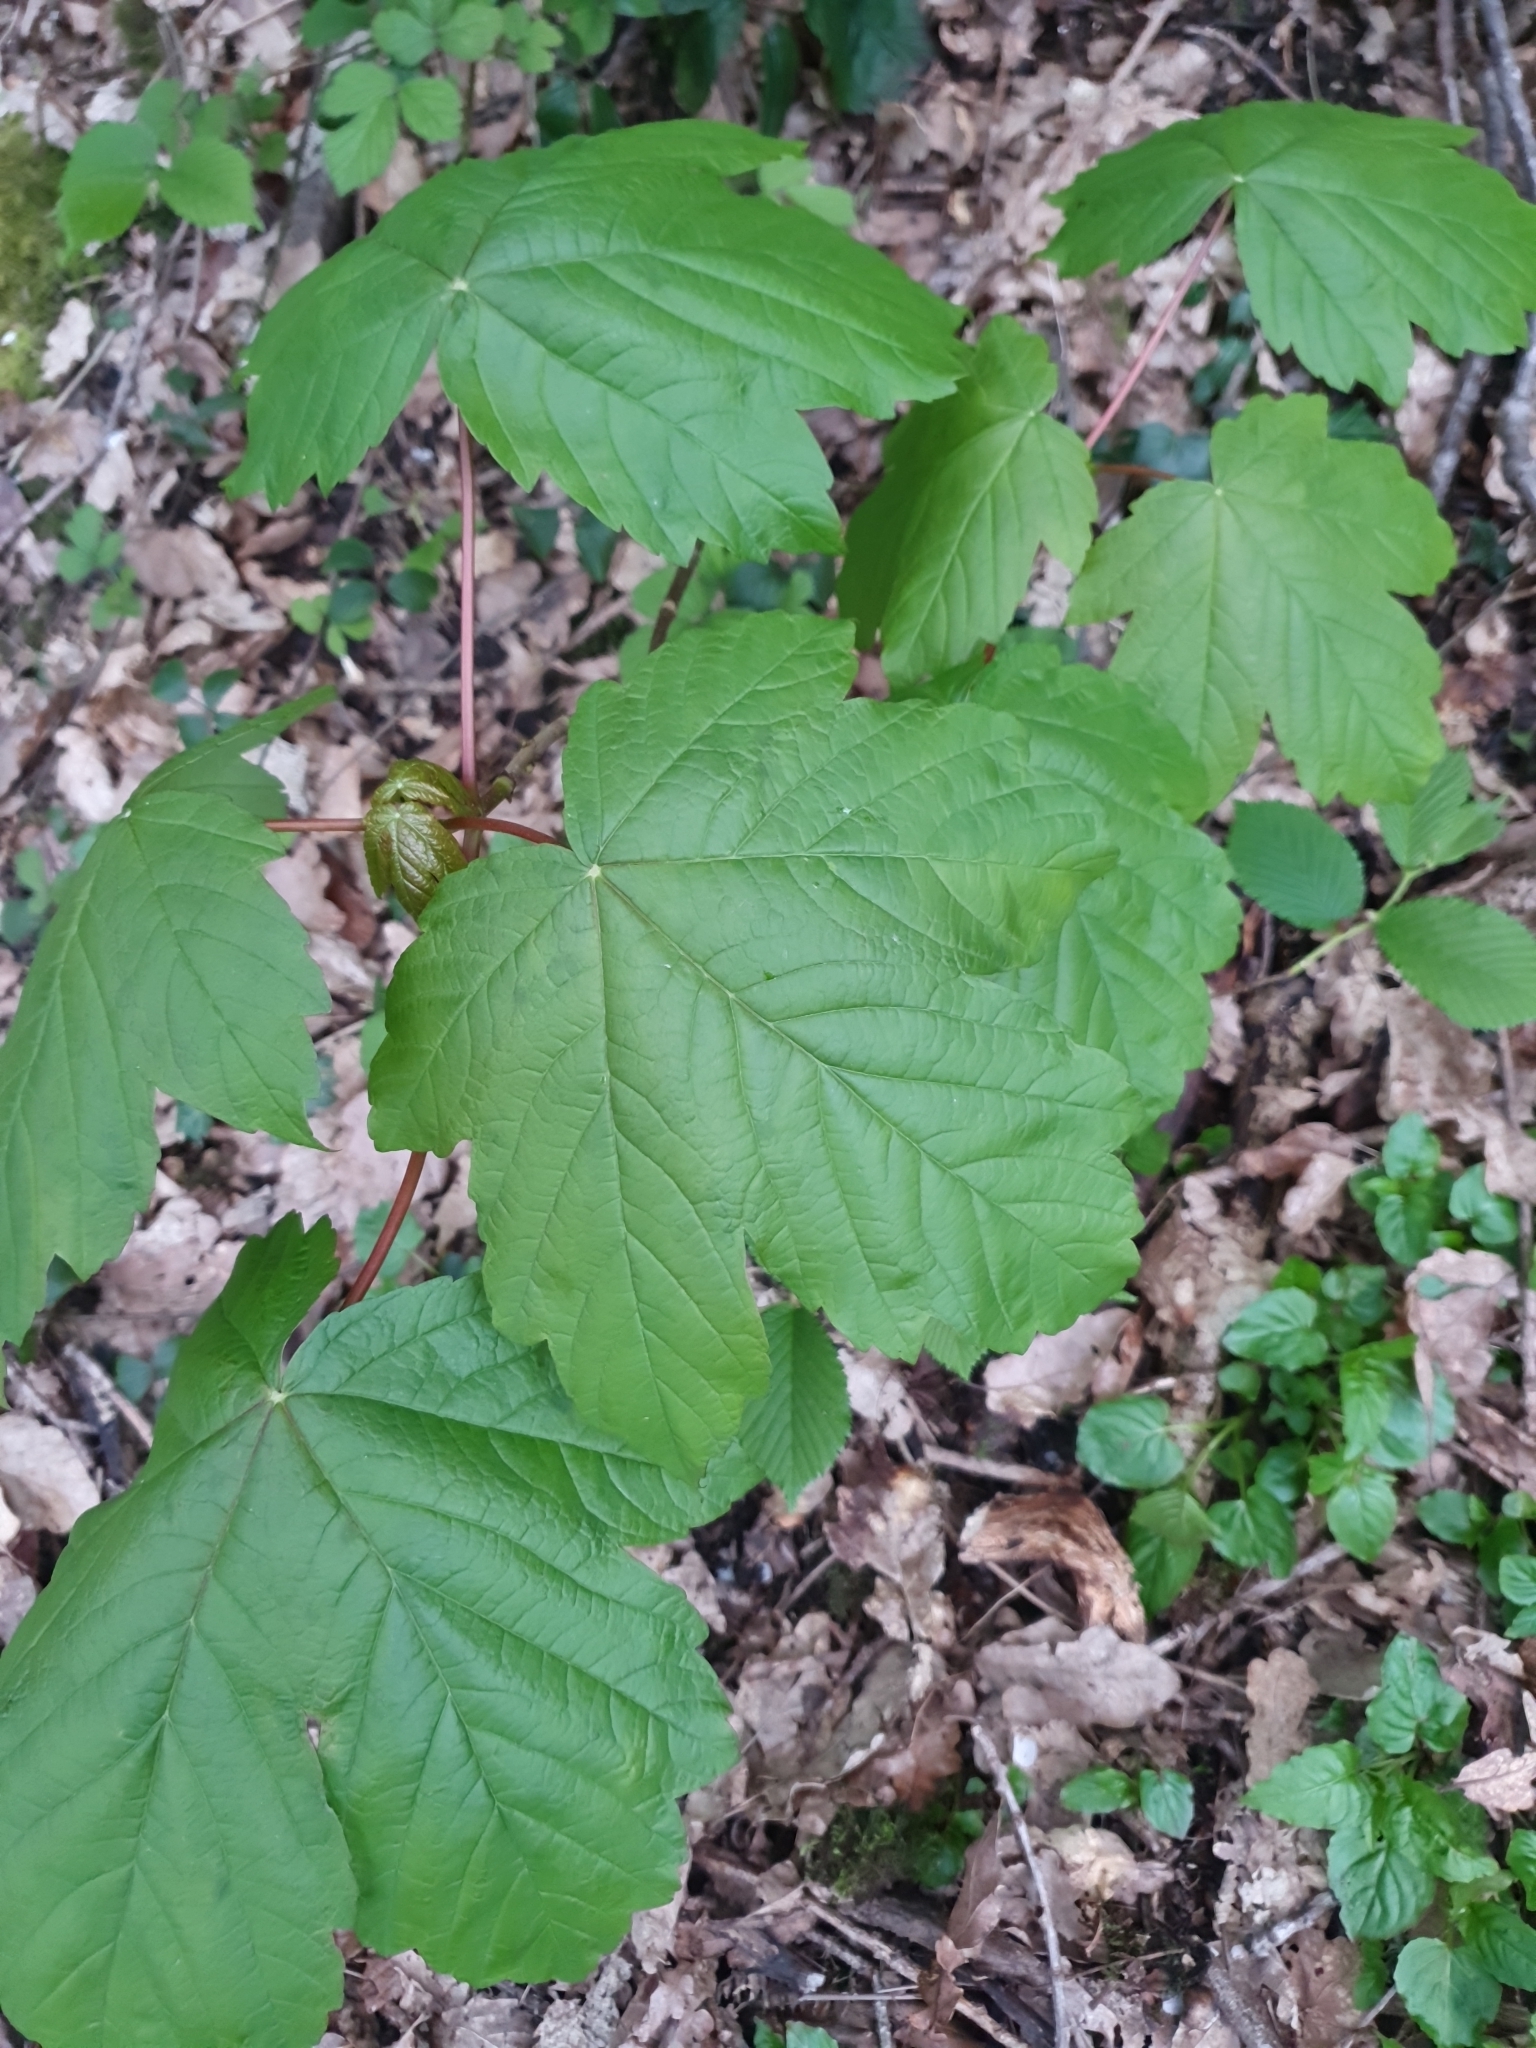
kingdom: Plantae
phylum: Tracheophyta
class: Magnoliopsida
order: Sapindales
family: Sapindaceae
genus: Acer
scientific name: Acer pseudoplatanus
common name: Sycamore
